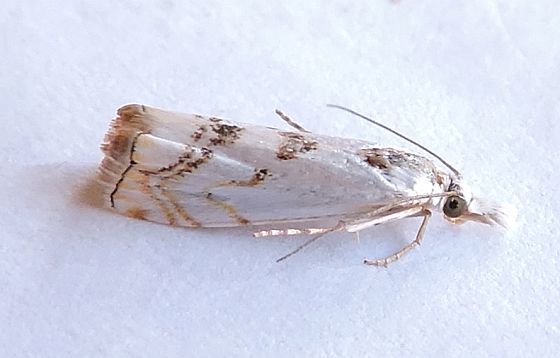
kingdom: Animalia
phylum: Arthropoda
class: Insecta
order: Lepidoptera
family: Crambidae
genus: Microcrambus
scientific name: Microcrambus copelandi
